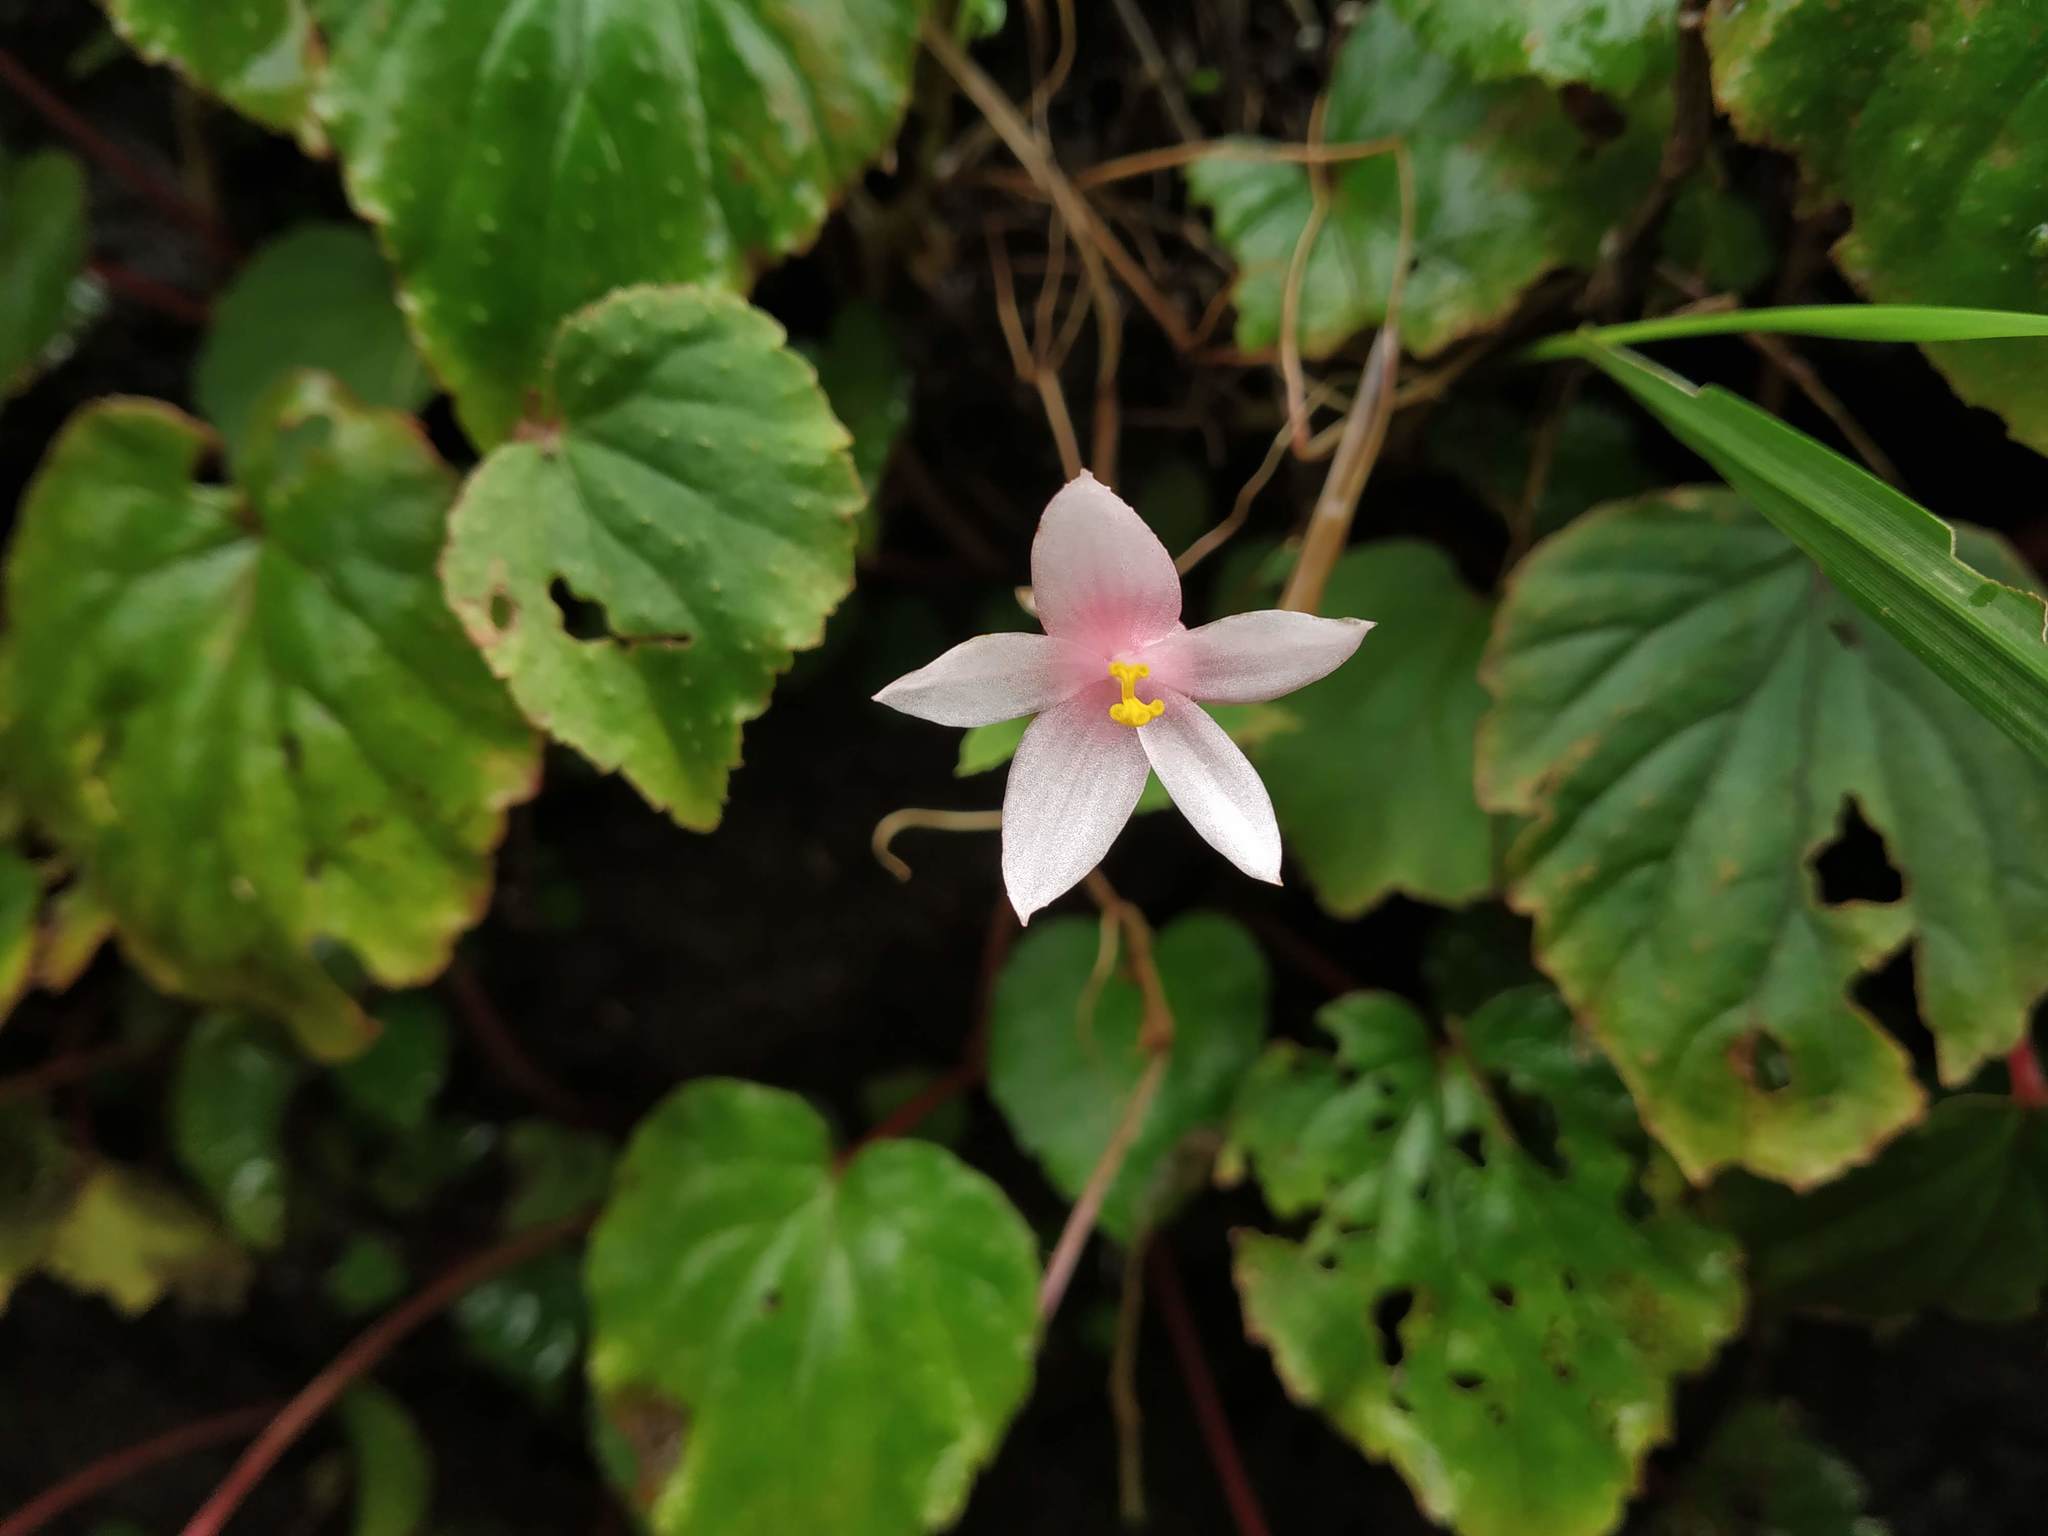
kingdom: Plantae
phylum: Tracheophyta
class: Magnoliopsida
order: Cucurbitales
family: Begoniaceae
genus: Begonia
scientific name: Begonia crenata
